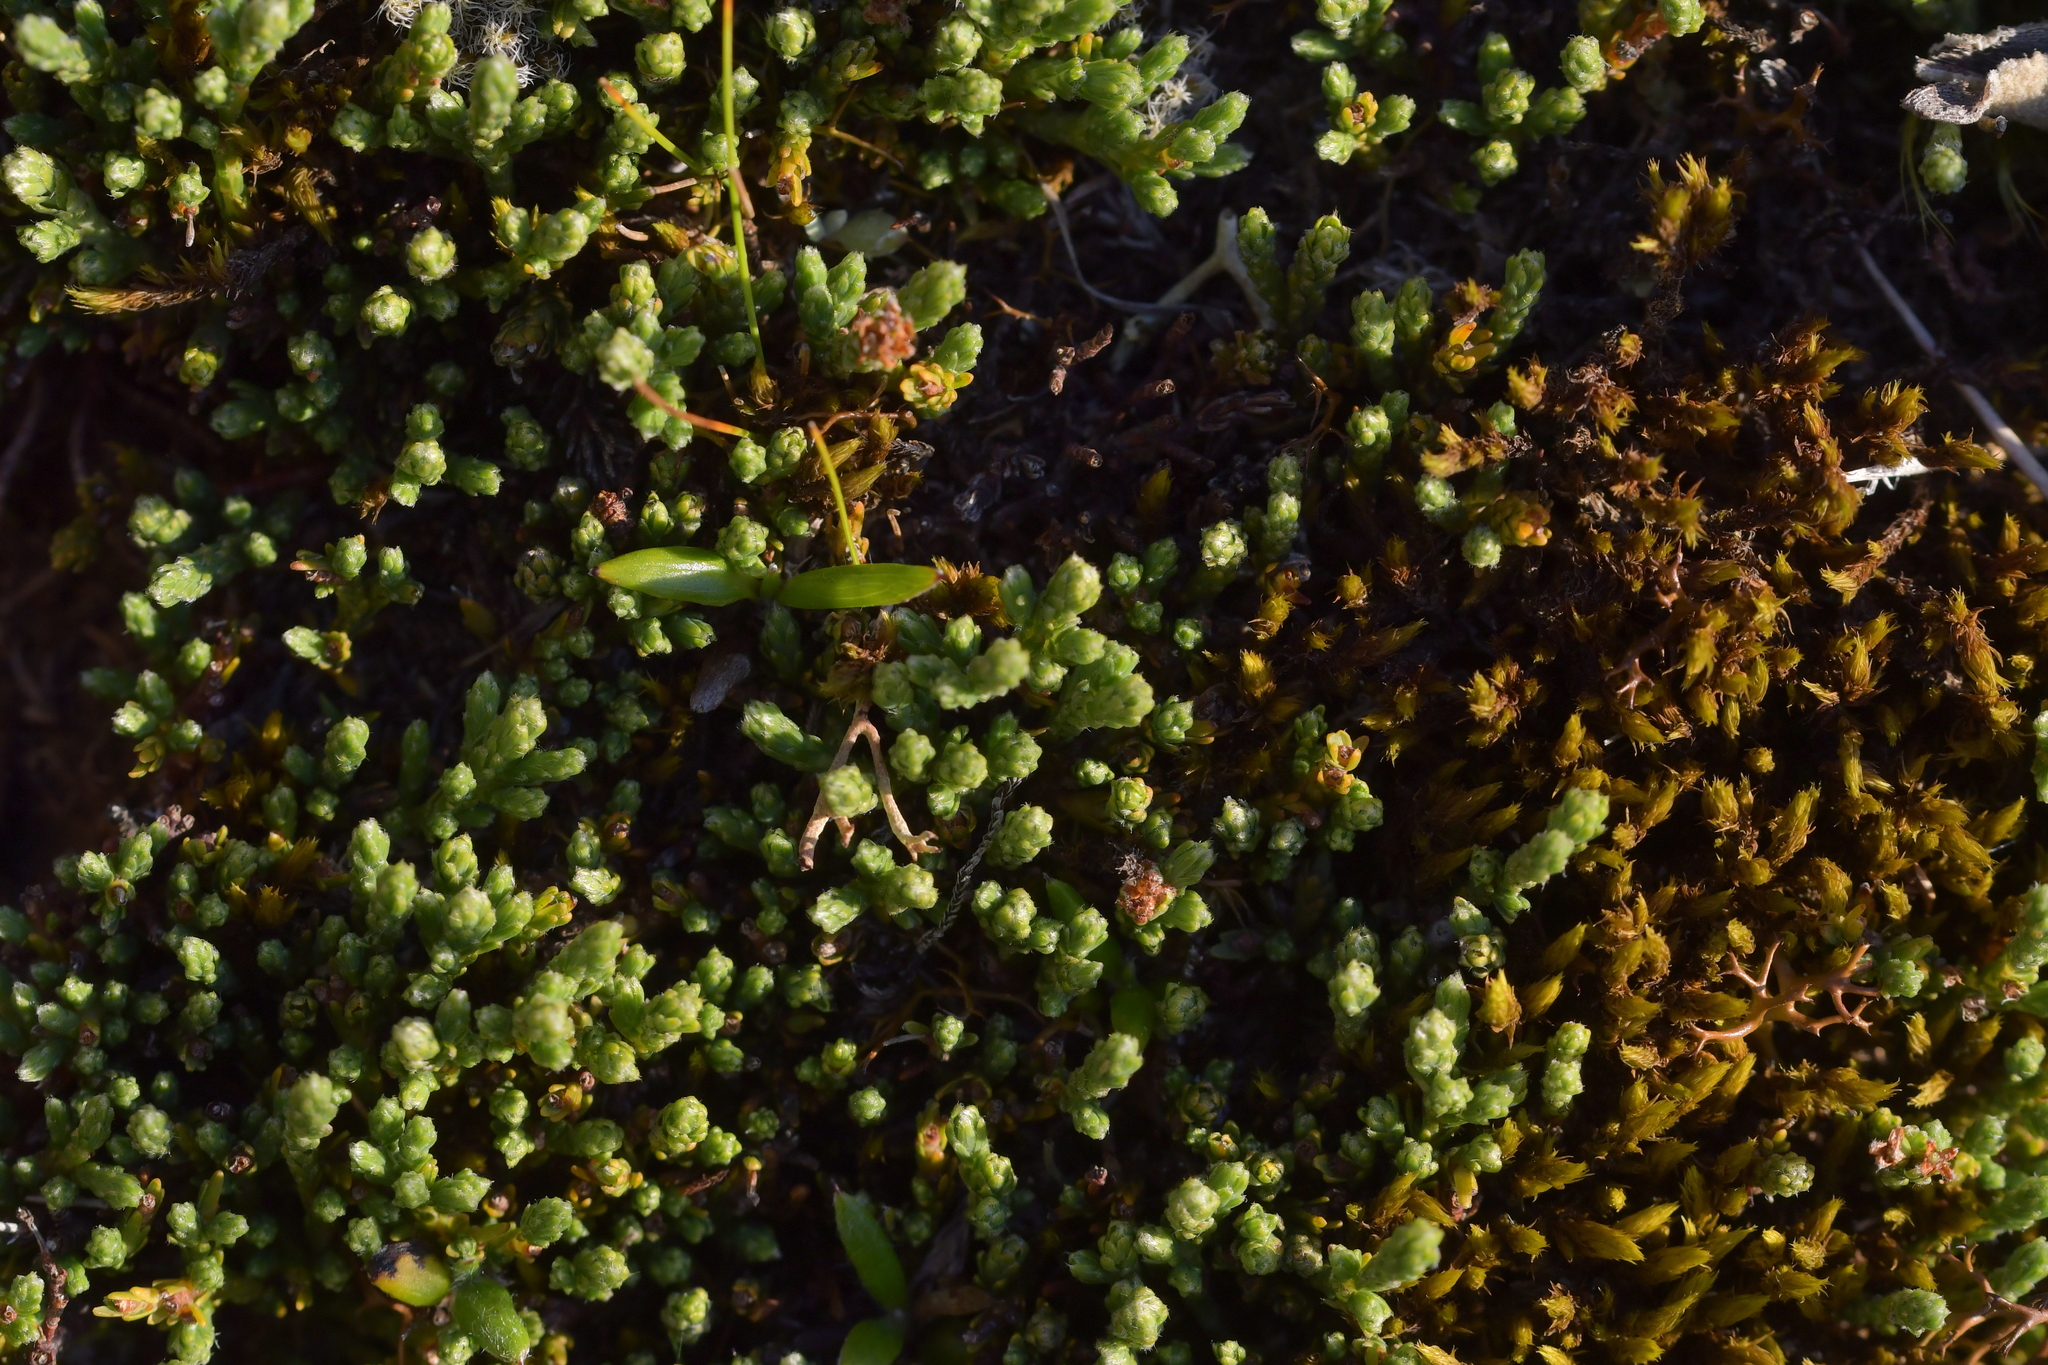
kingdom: Plantae
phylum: Tracheophyta
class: Magnoliopsida
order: Malvales
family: Thymelaeaceae
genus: Kelleria
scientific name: Kelleria dieffenbachii
